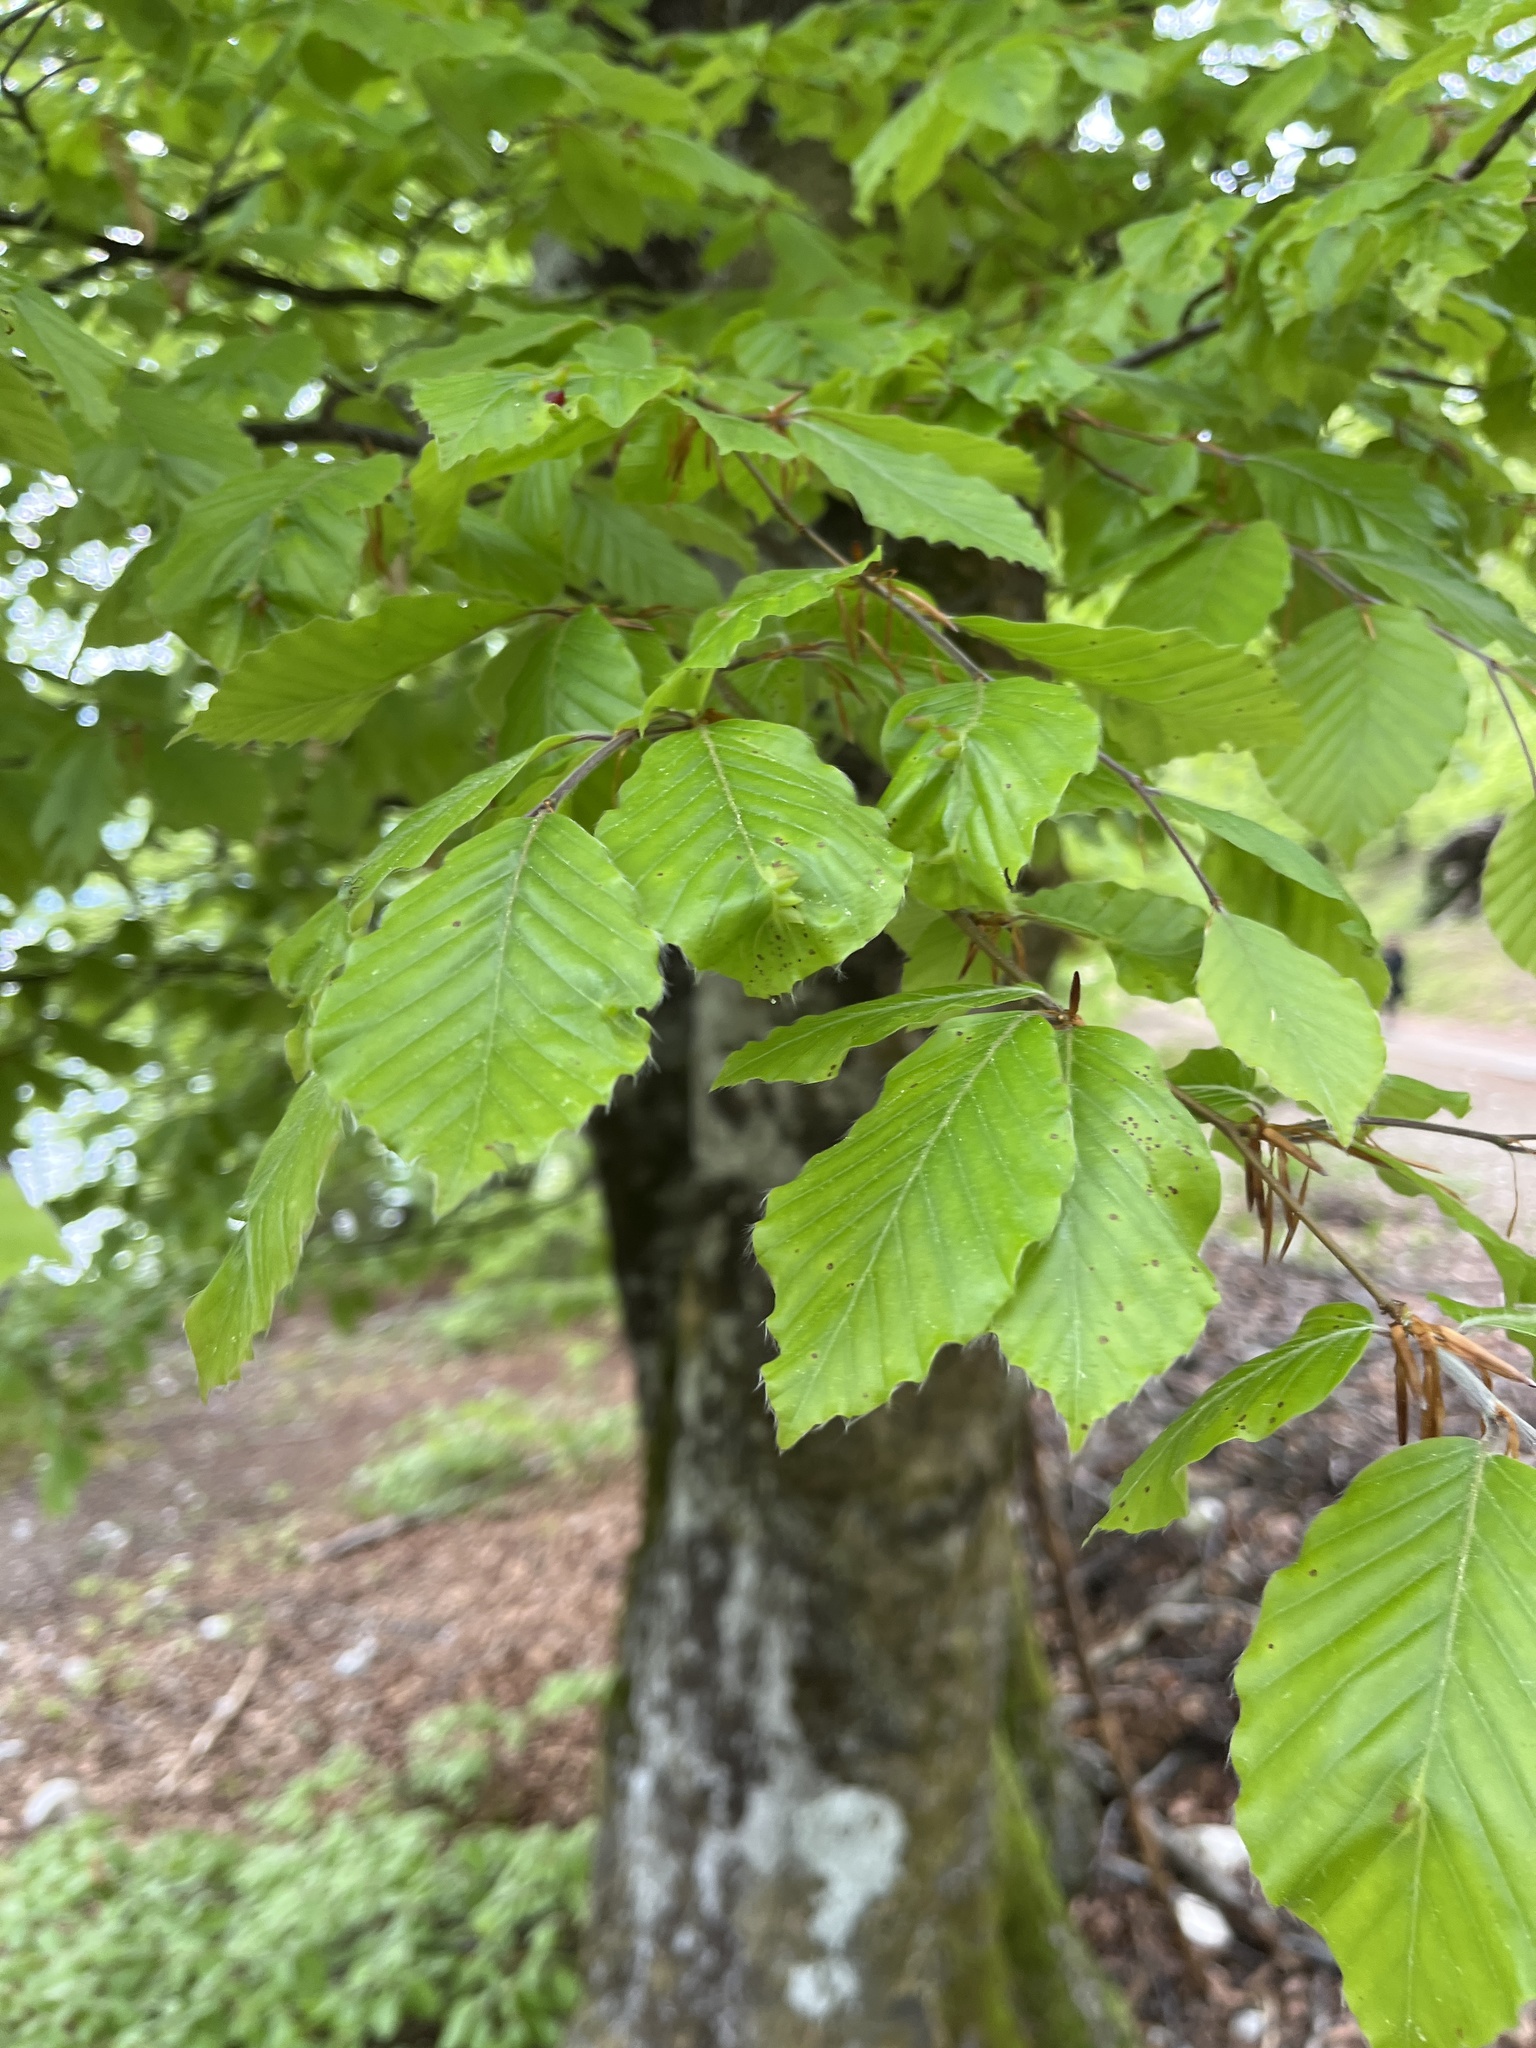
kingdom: Plantae
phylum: Tracheophyta
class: Magnoliopsida
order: Fagales
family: Fagaceae
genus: Fagus
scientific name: Fagus sylvatica
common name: Beech
